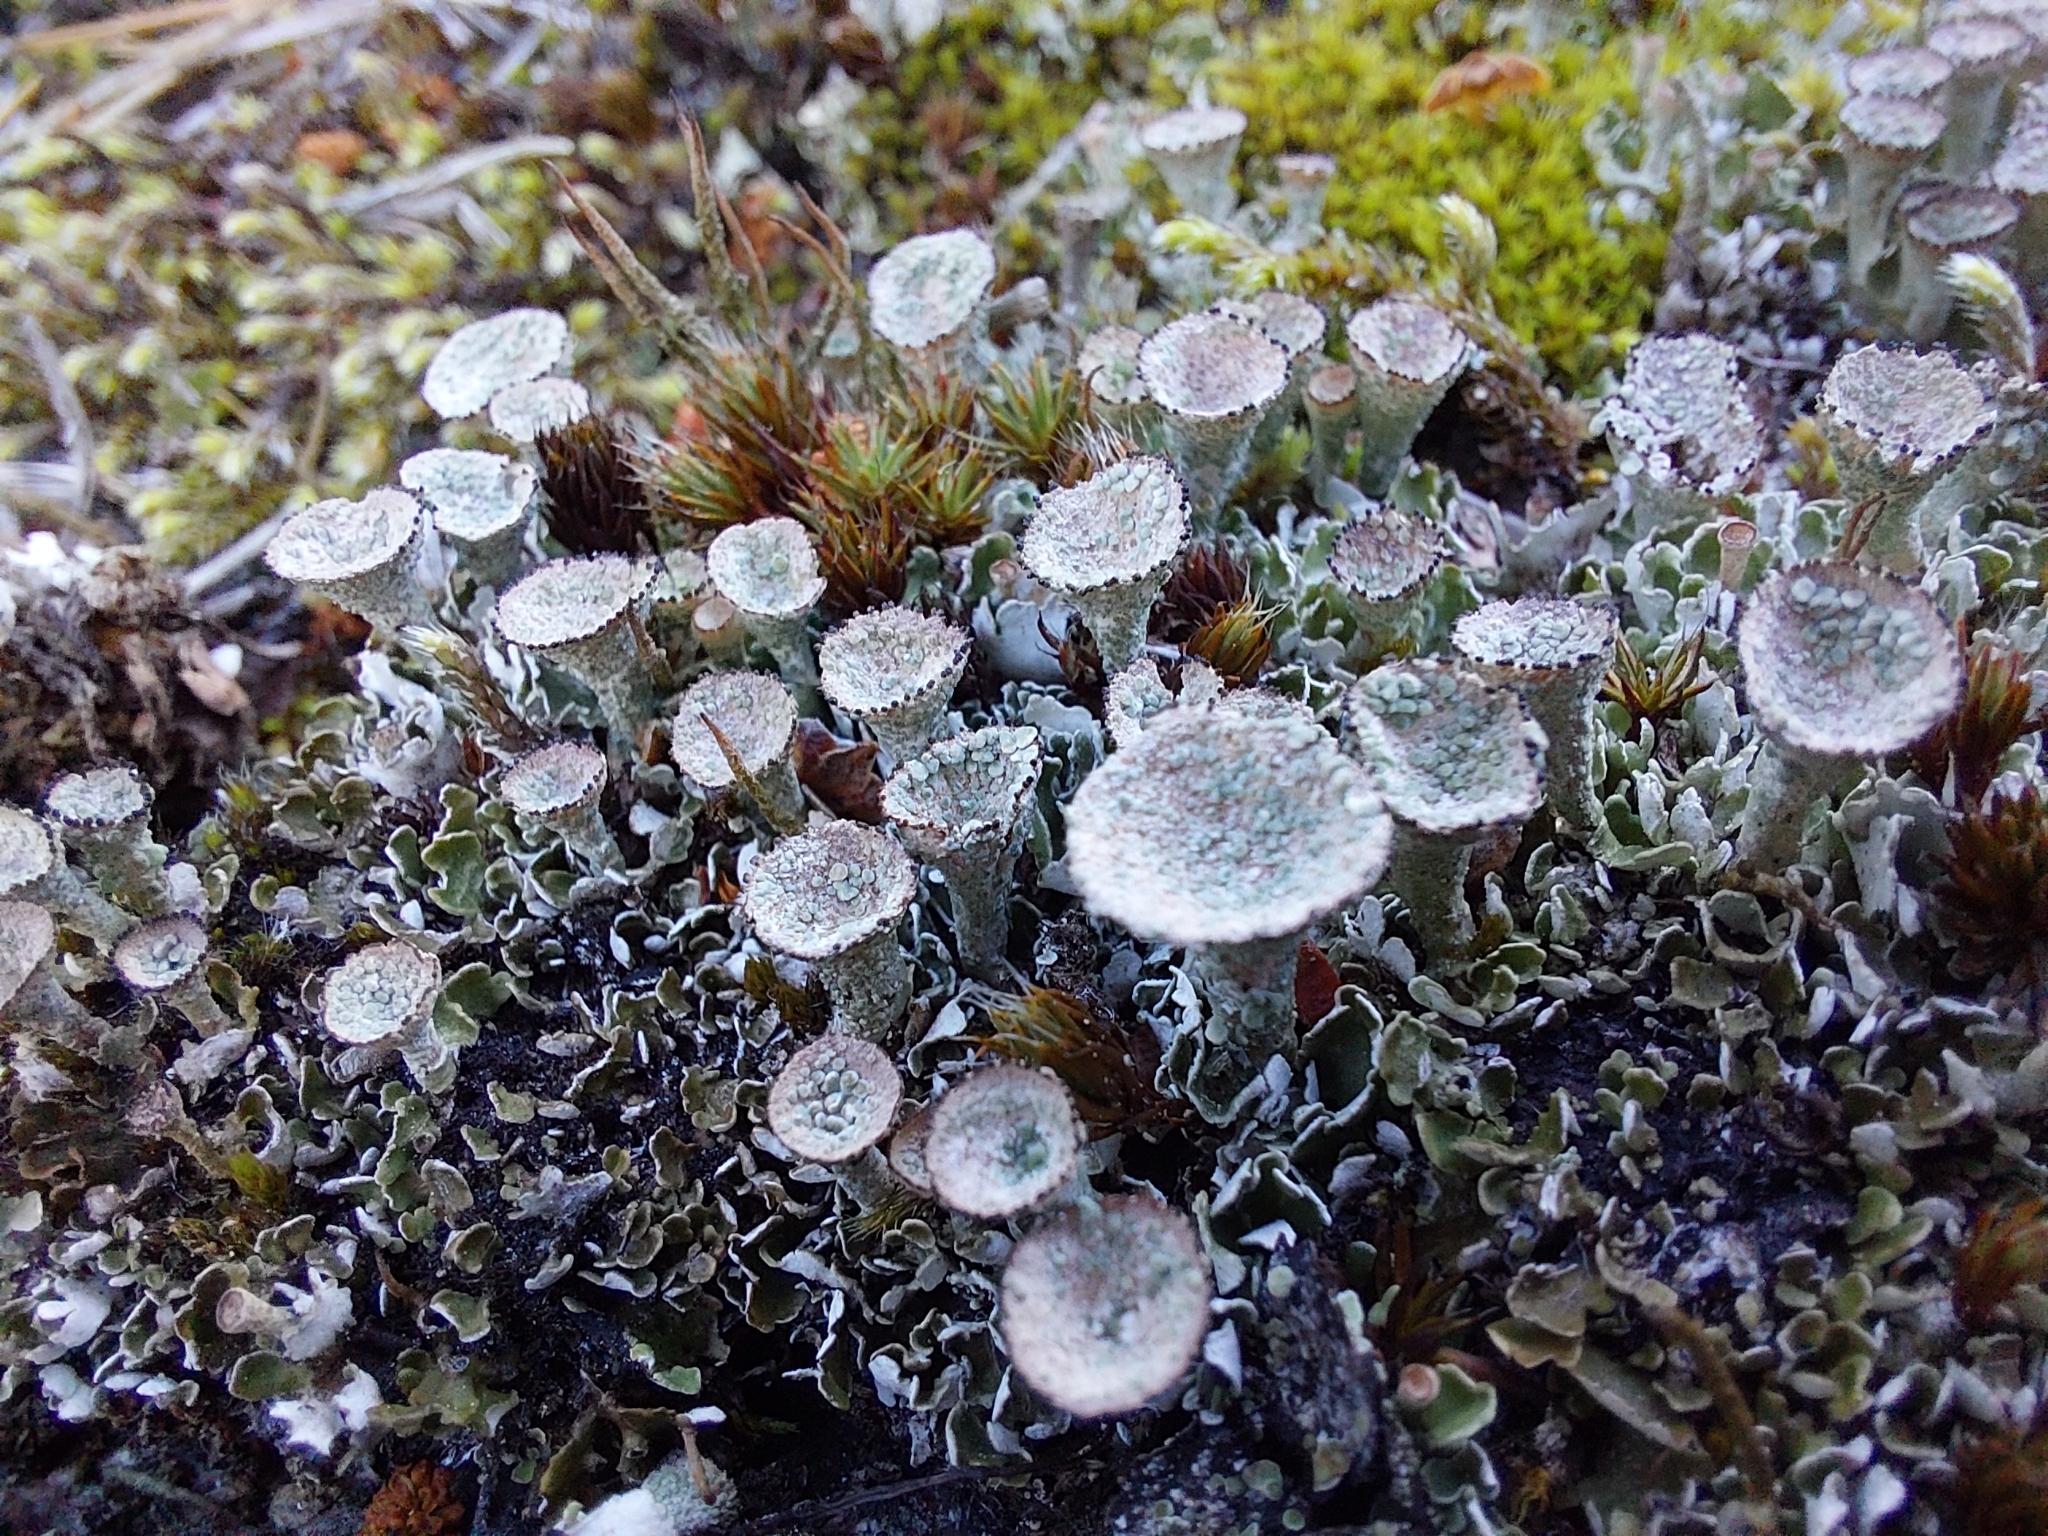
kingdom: Fungi
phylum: Ascomycota
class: Lecanoromycetes
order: Lecanorales
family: Cladoniaceae
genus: Cladonia
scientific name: Cladonia pyxidata
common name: Pebbled pixie cup
